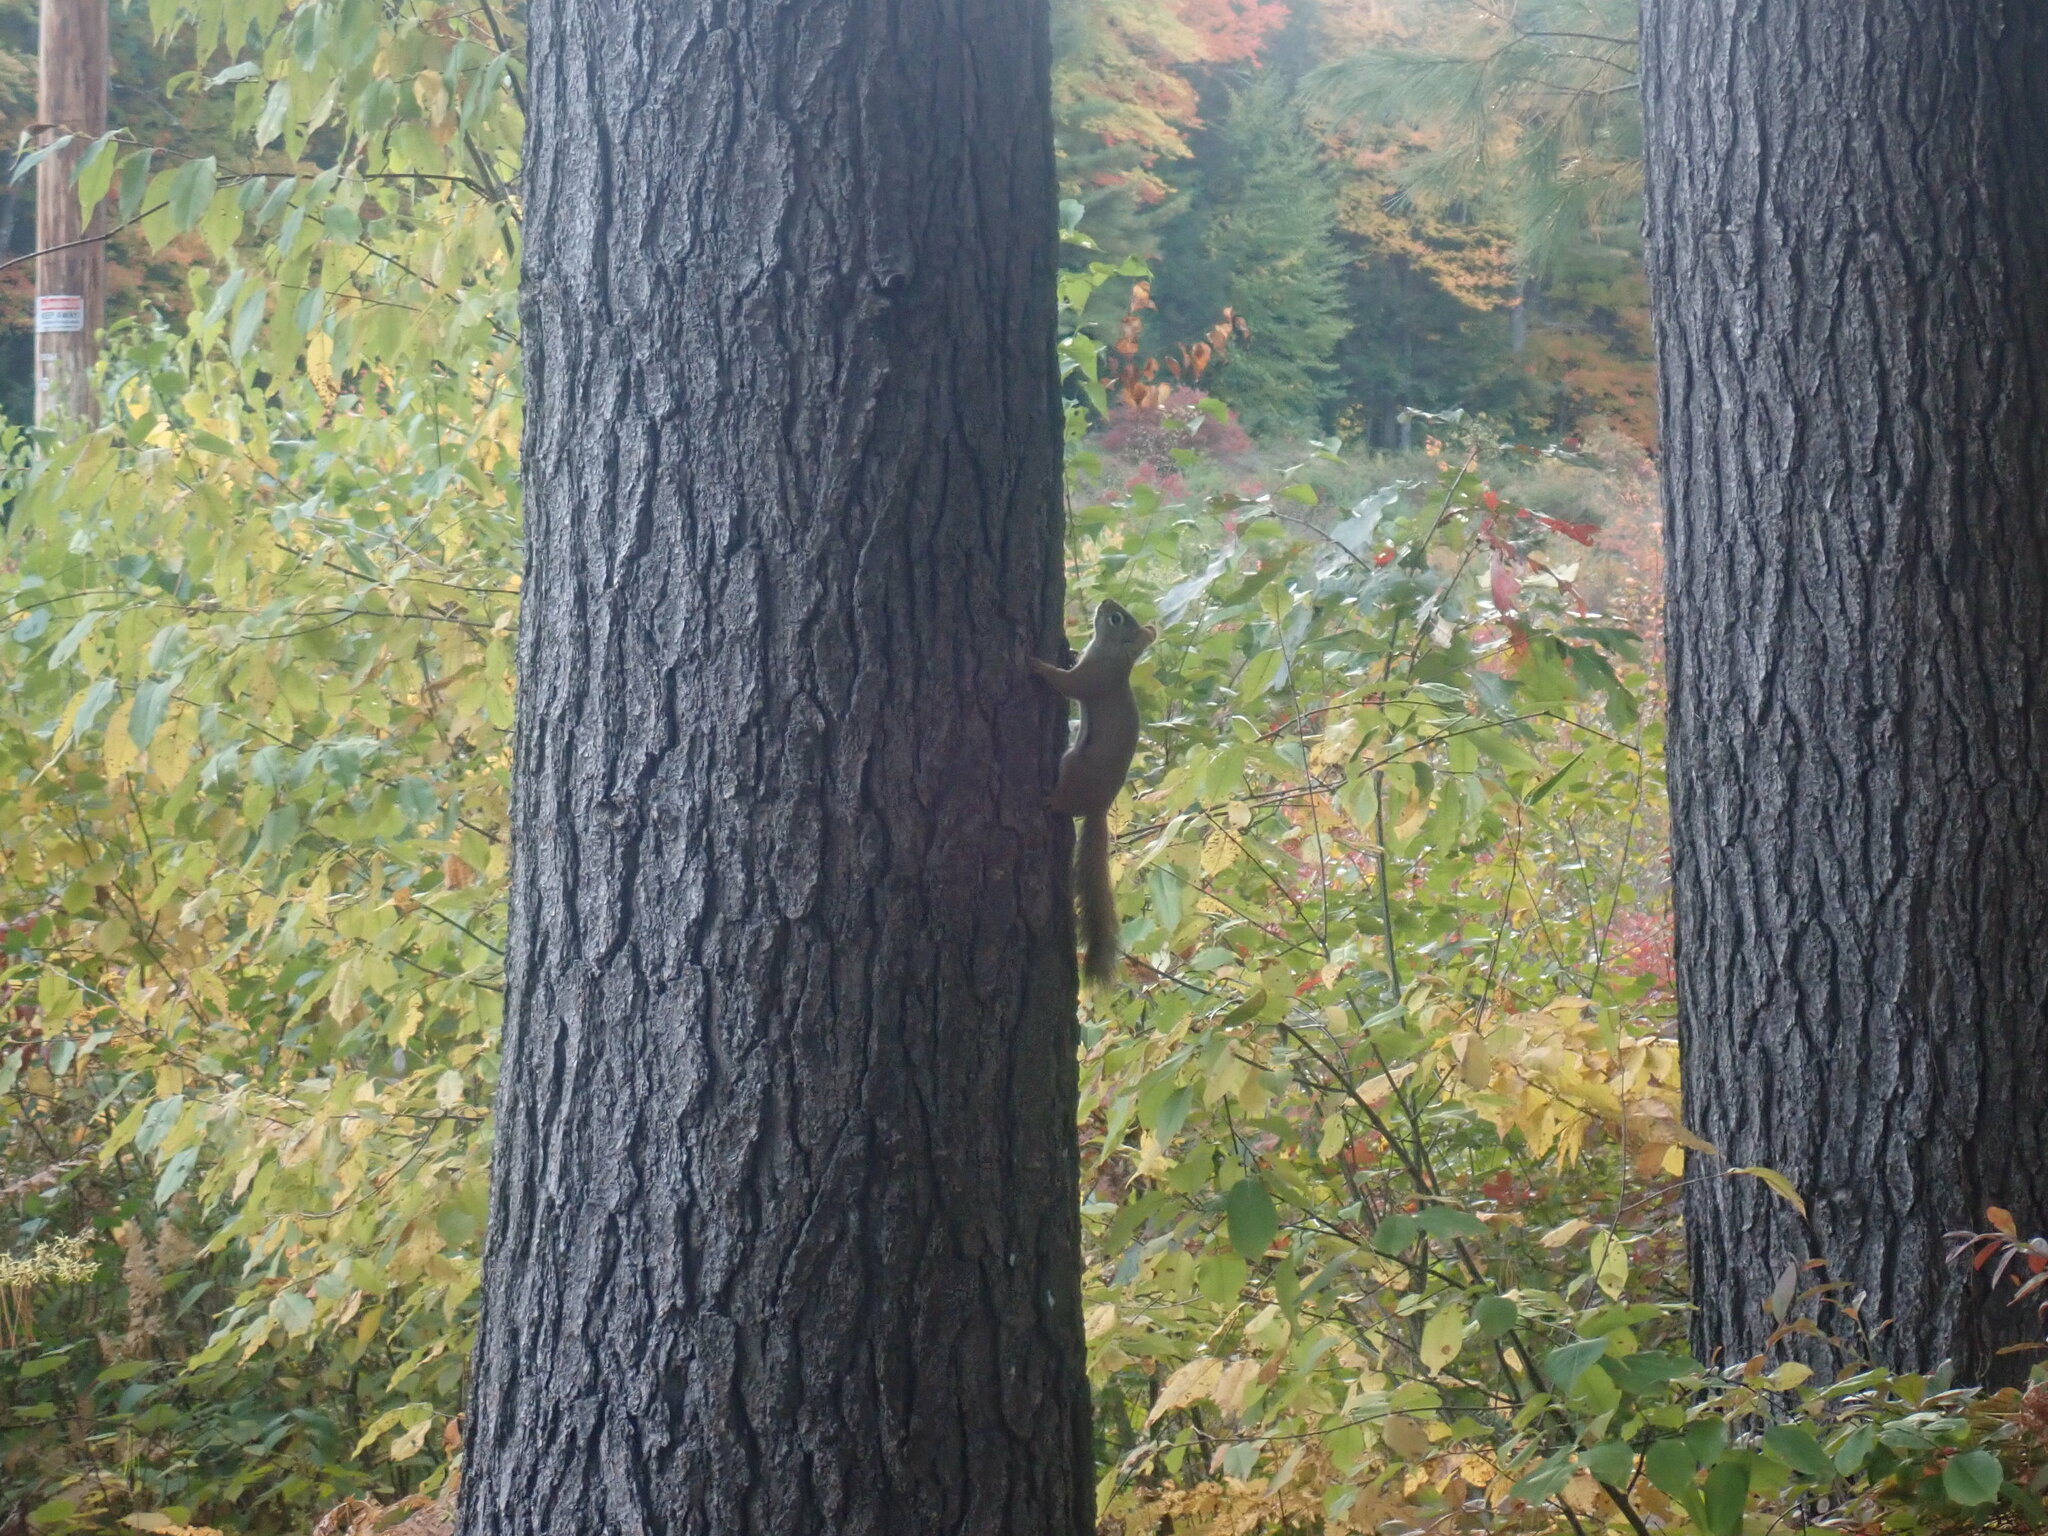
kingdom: Animalia
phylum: Chordata
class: Mammalia
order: Rodentia
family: Sciuridae
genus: Tamiasciurus
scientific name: Tamiasciurus hudsonicus
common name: Red squirrel
